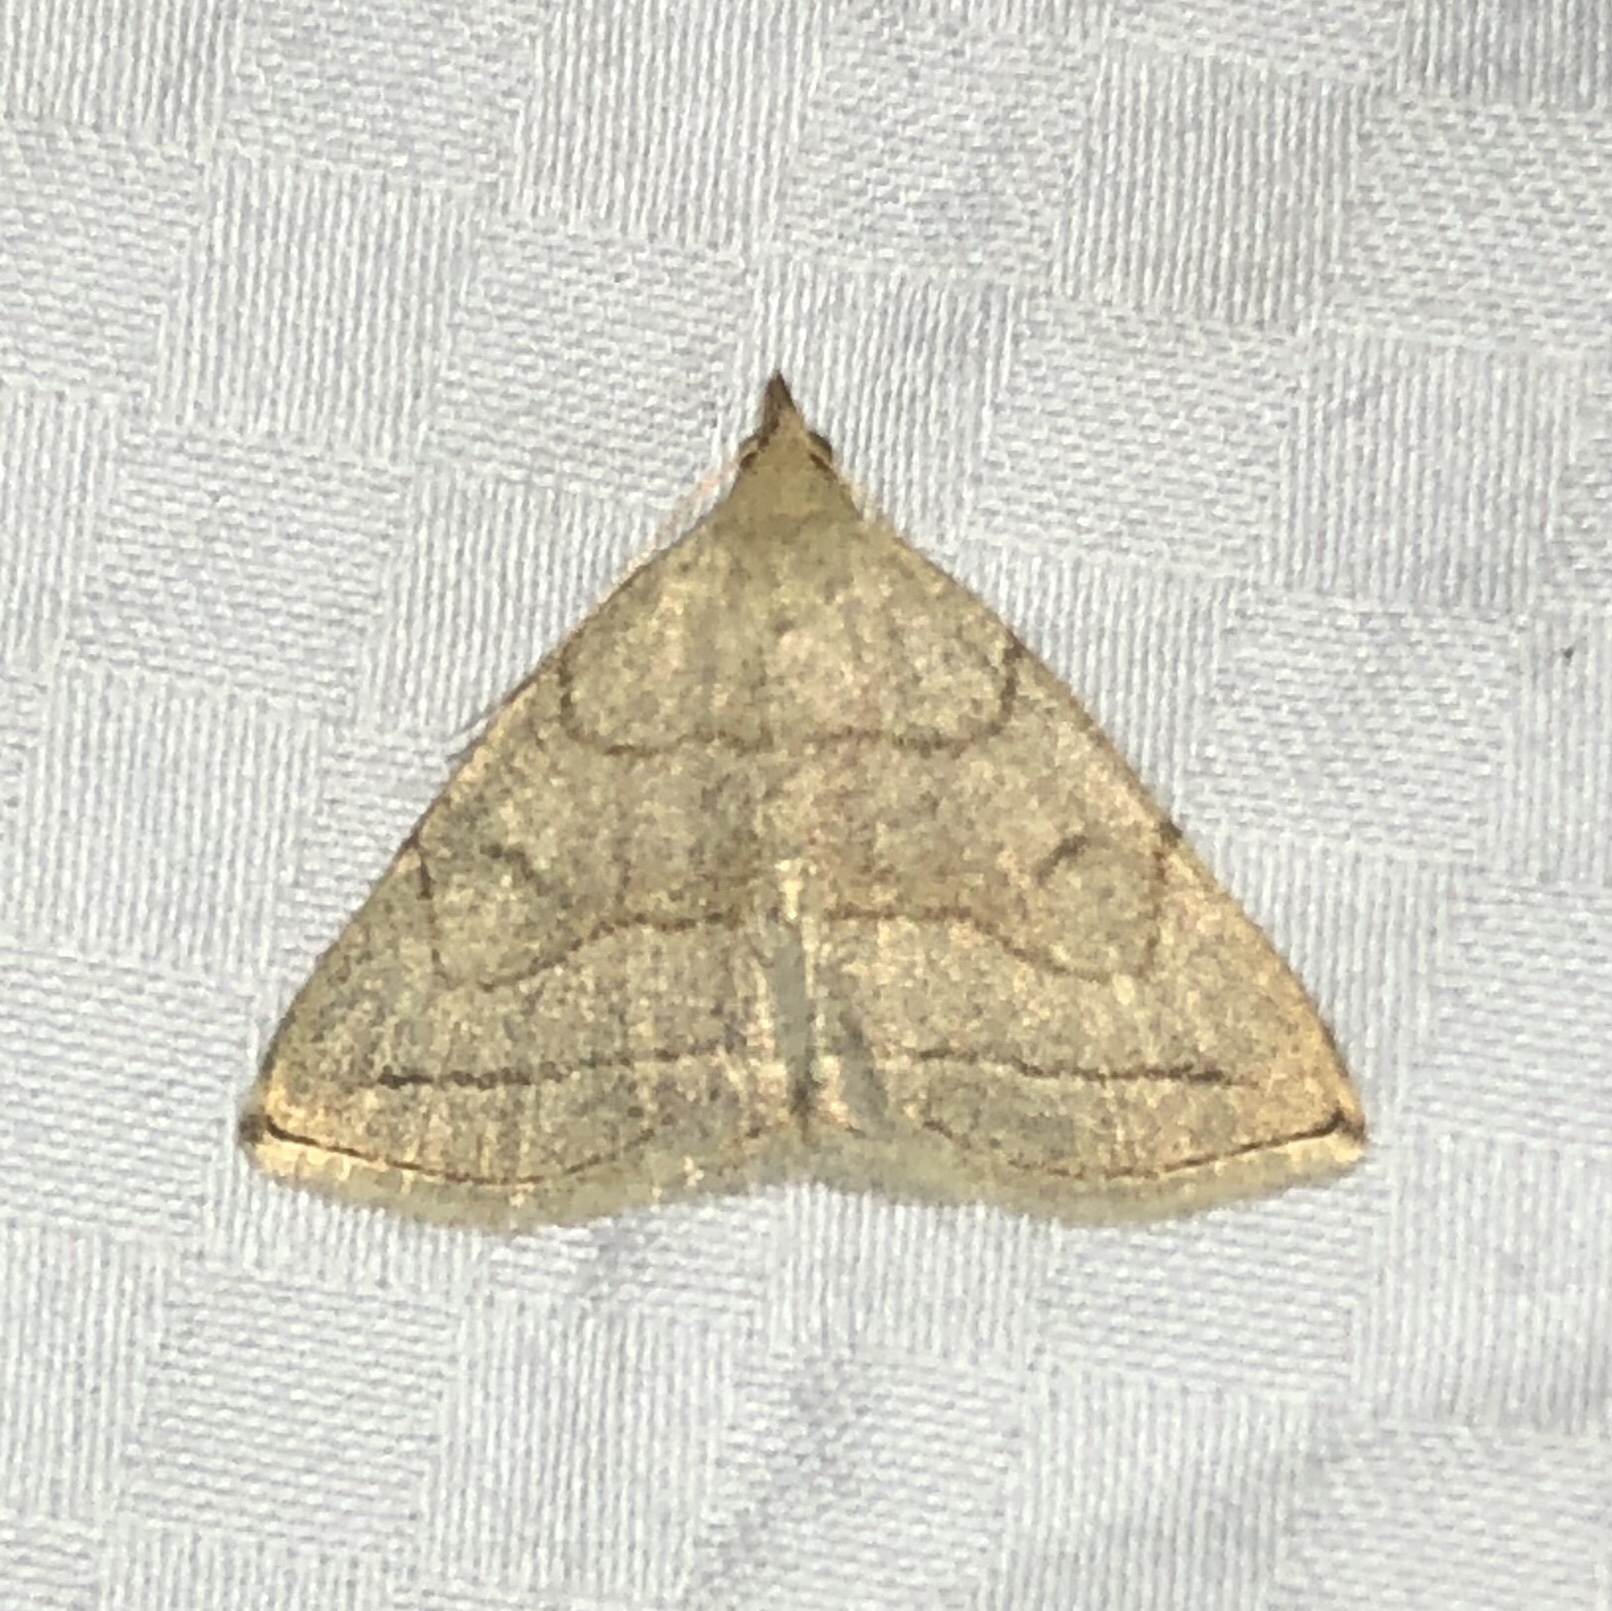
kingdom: Animalia
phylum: Arthropoda
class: Insecta
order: Lepidoptera
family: Erebidae
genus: Zanclognatha
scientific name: Zanclognatha pedipilalis
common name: Grayish fan-foot
